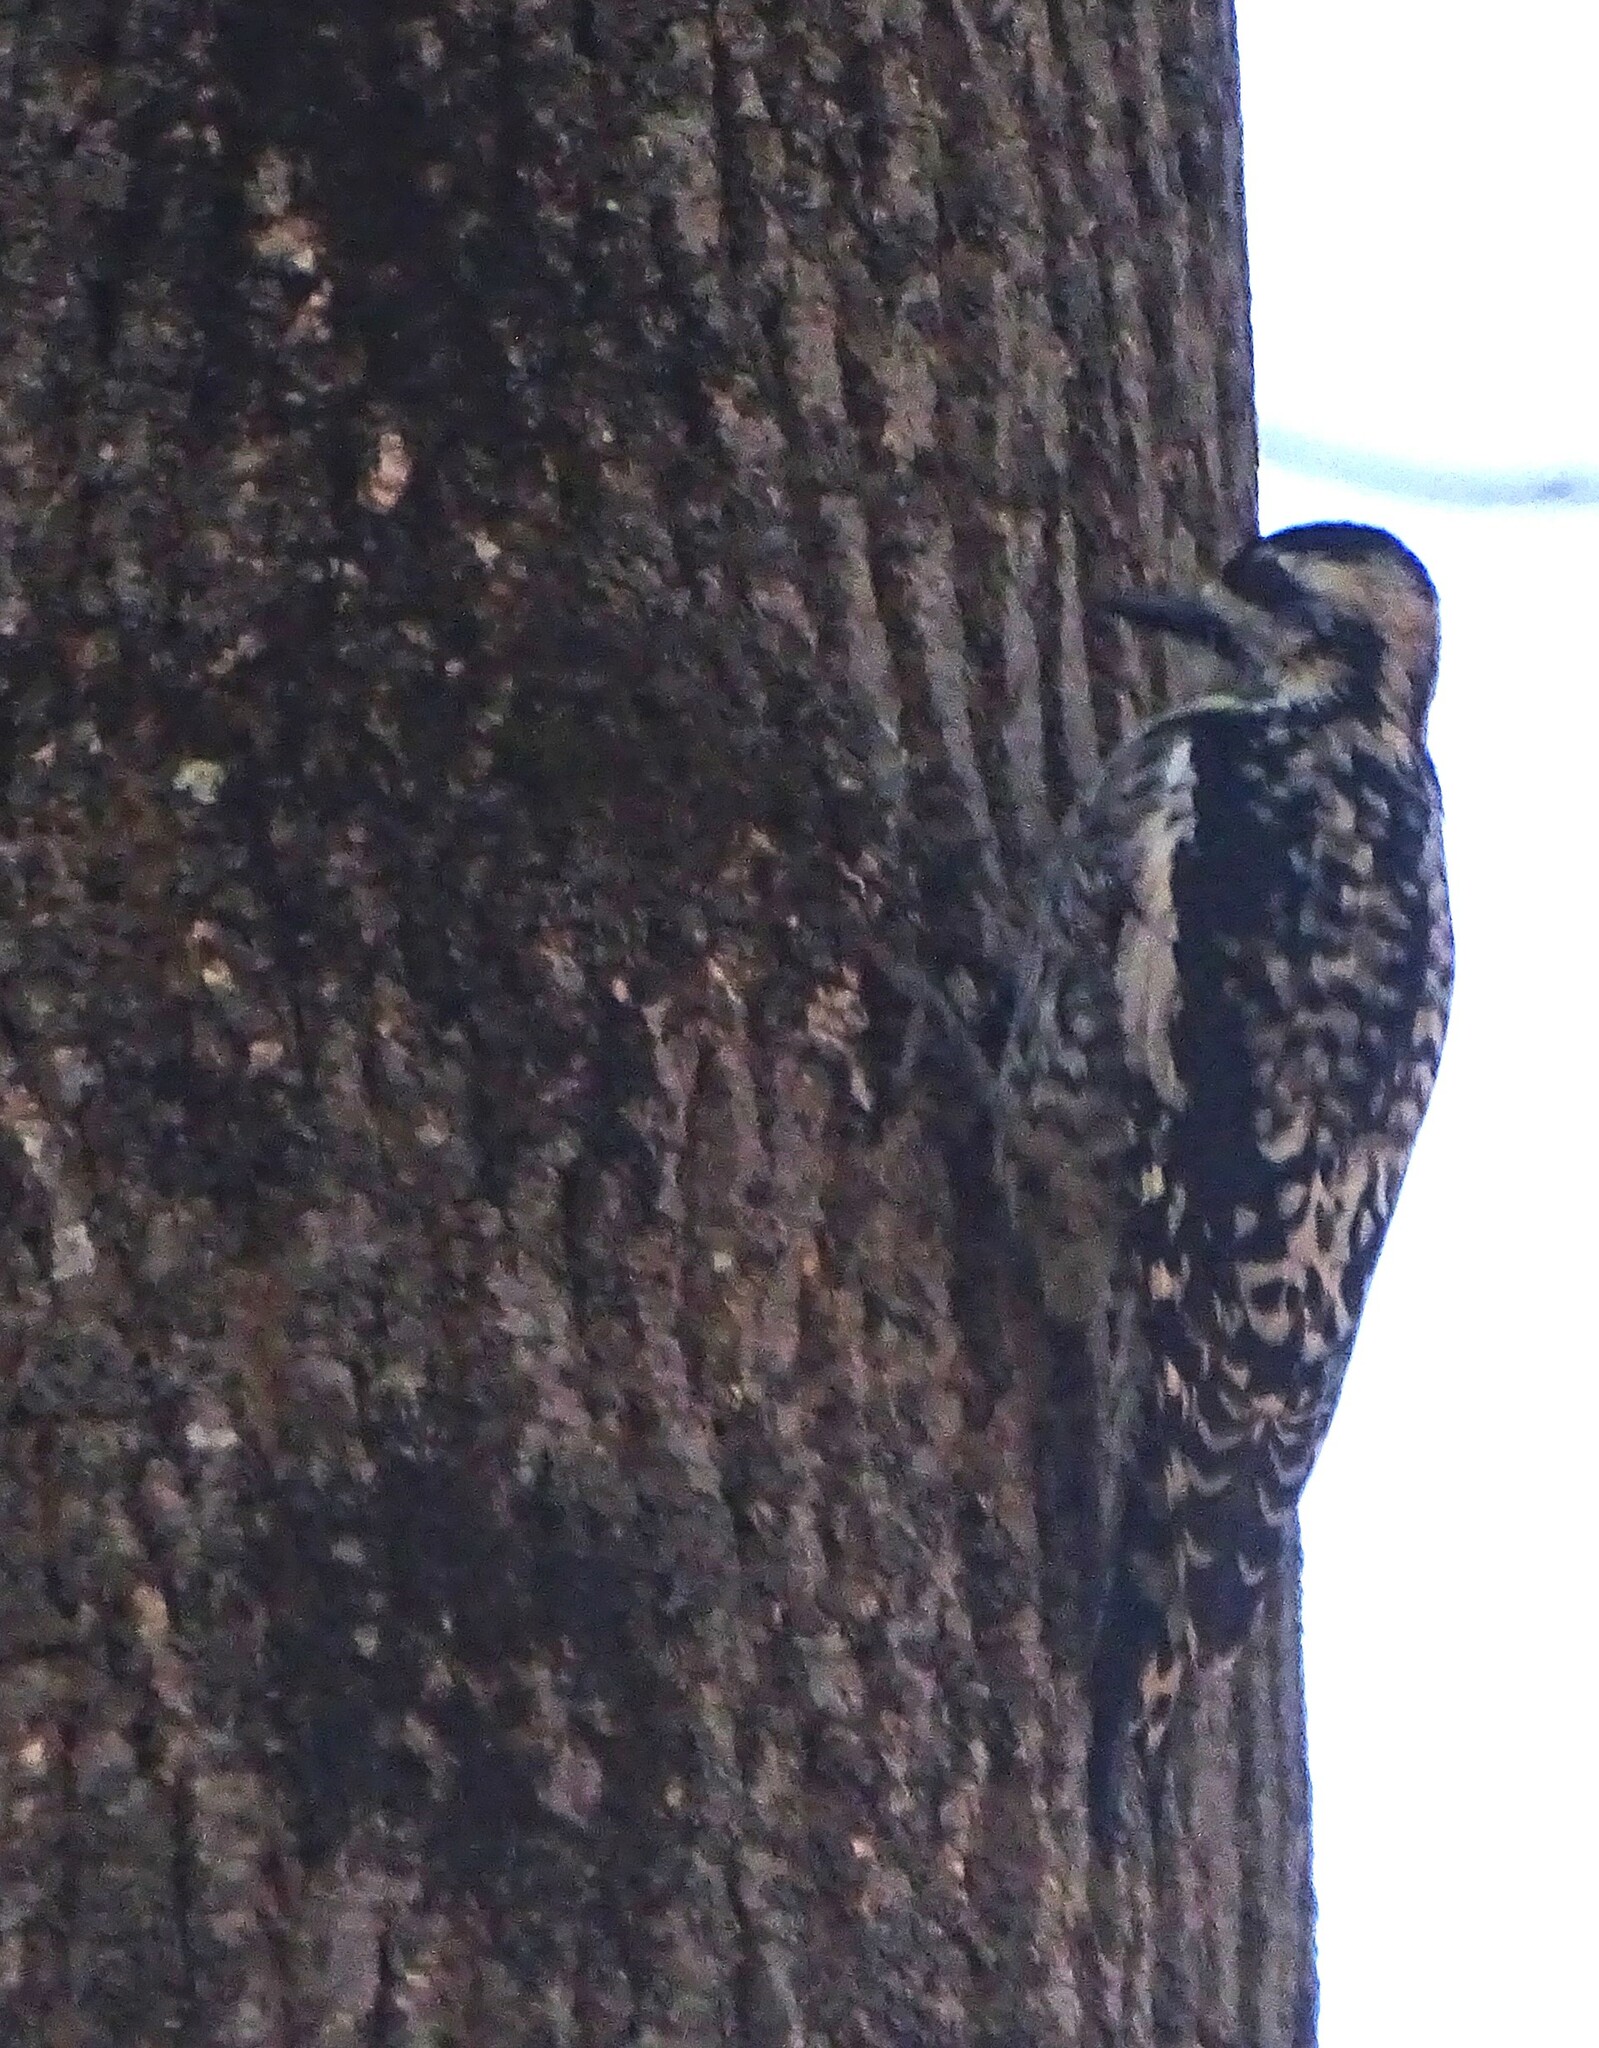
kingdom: Animalia
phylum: Chordata
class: Aves
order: Piciformes
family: Picidae
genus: Sphyrapicus
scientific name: Sphyrapicus varius
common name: Yellow-bellied sapsucker
